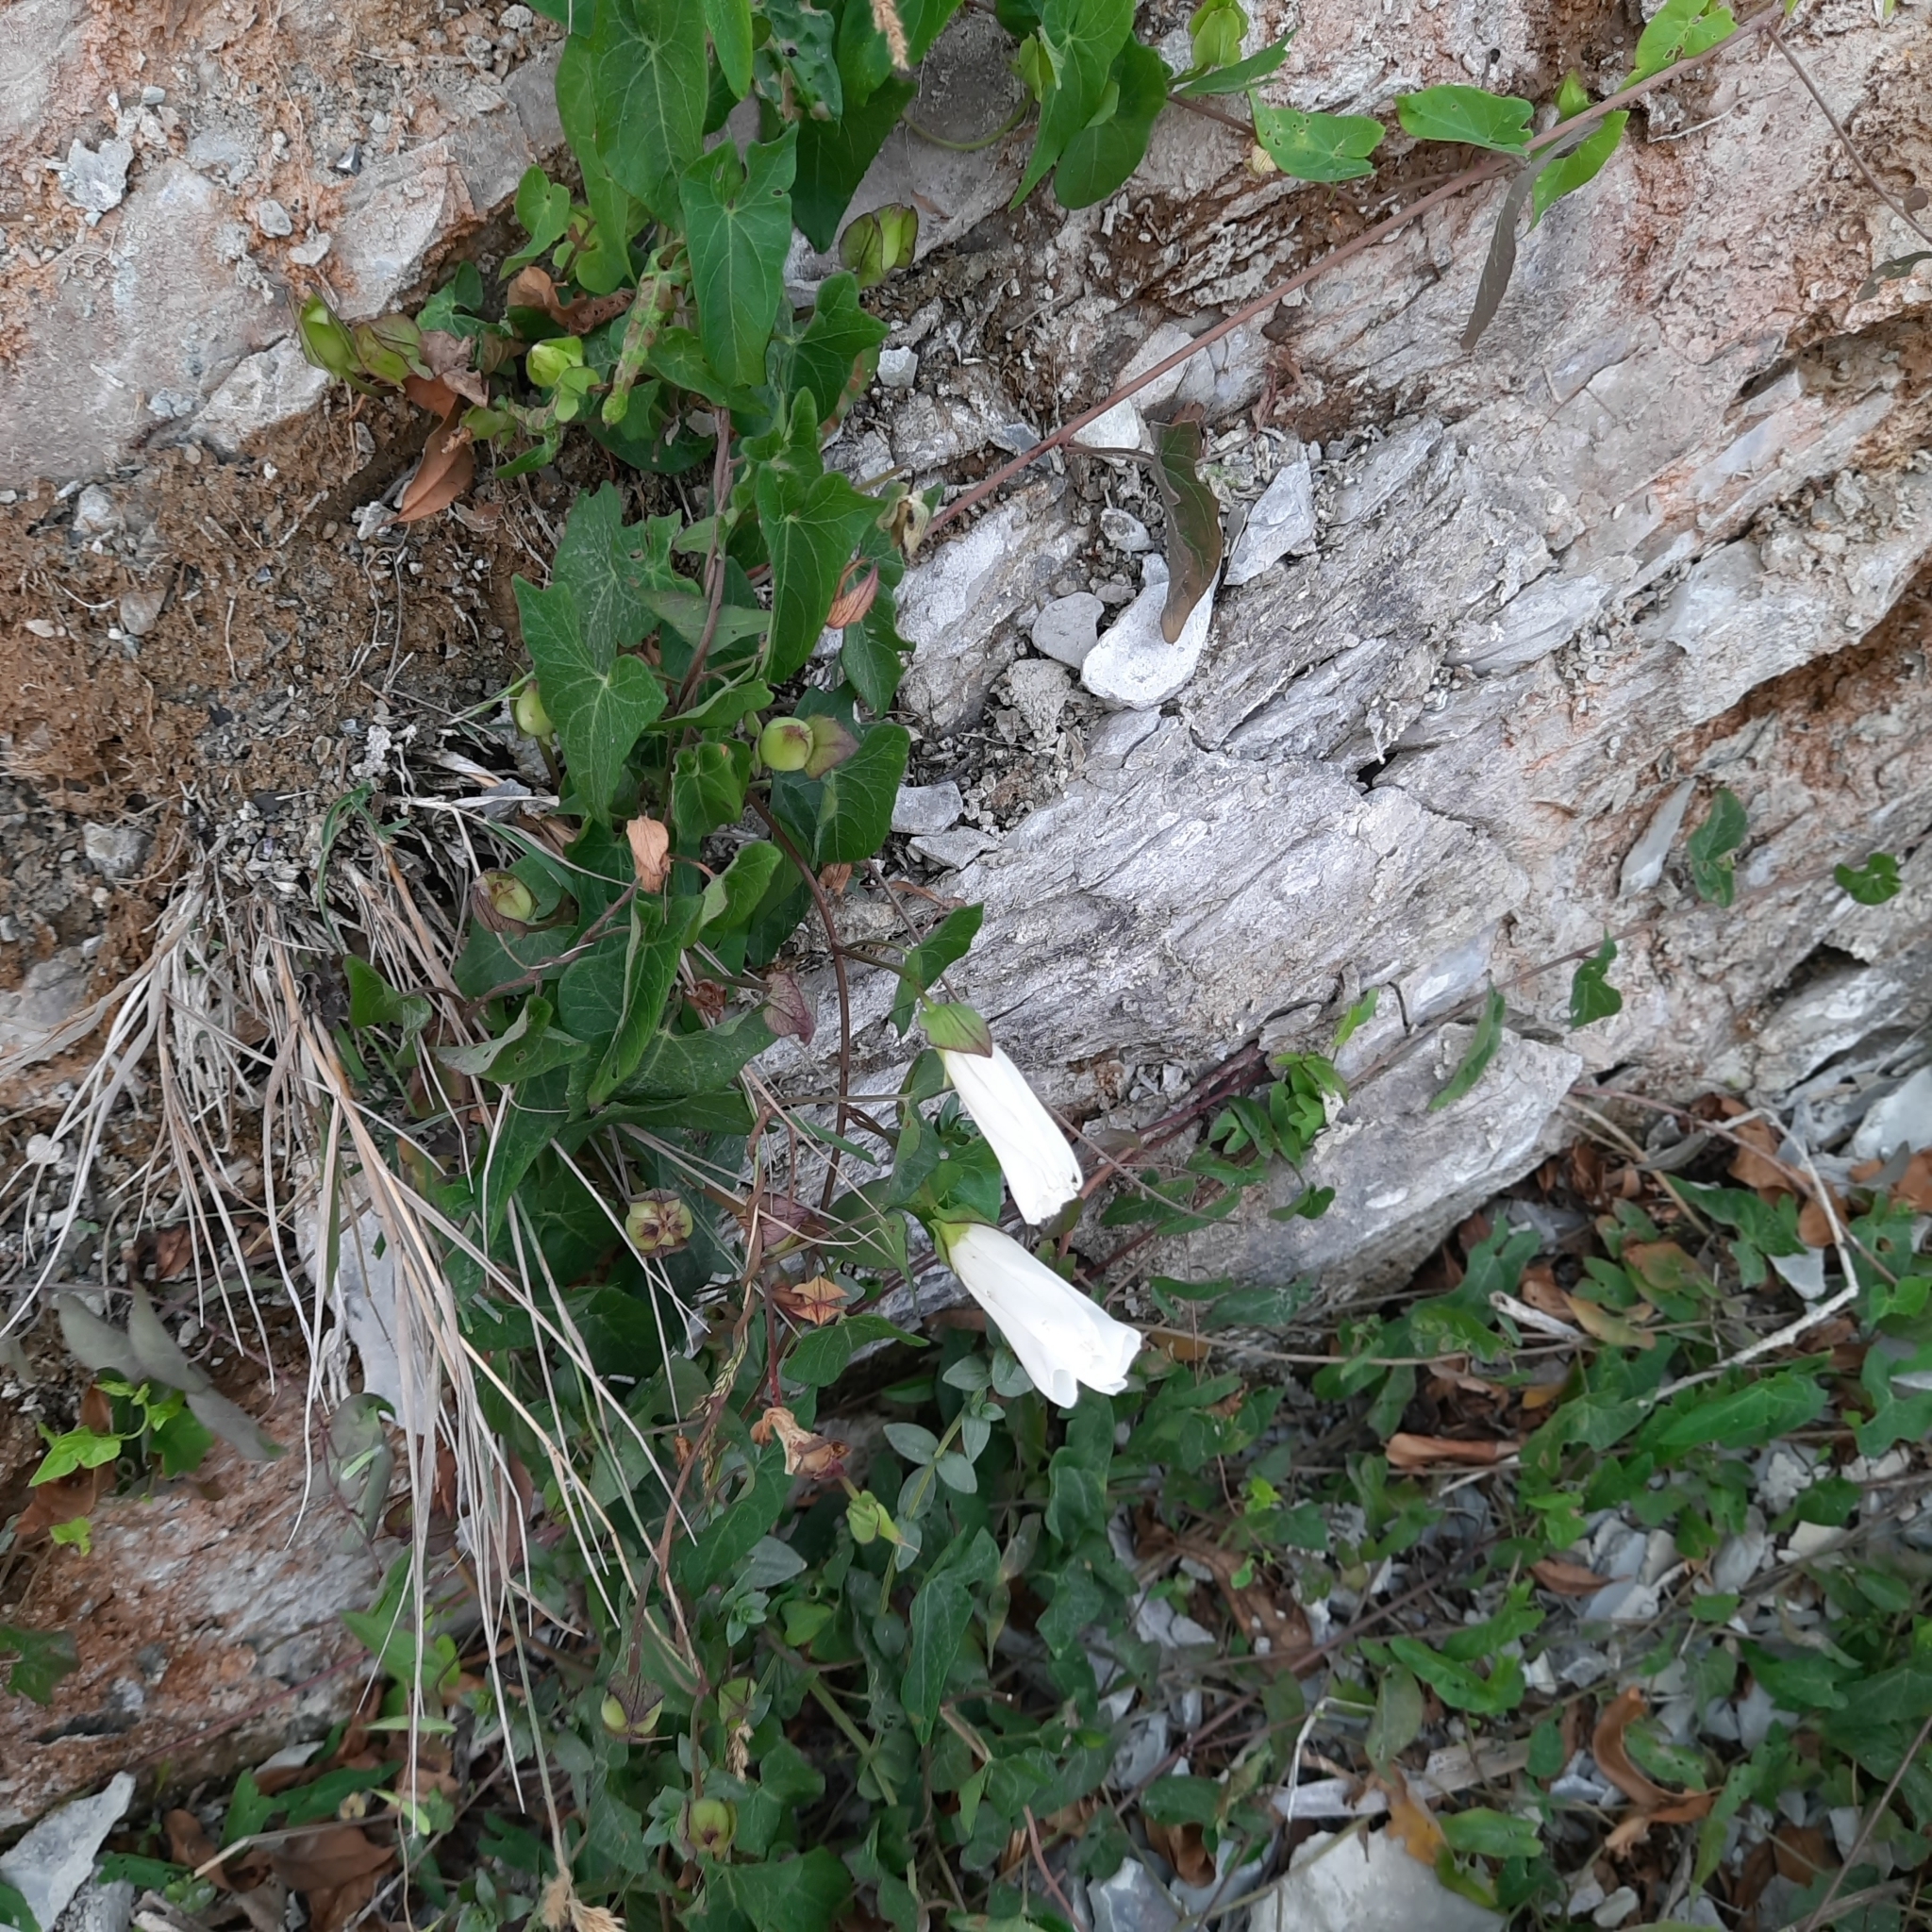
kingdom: Plantae
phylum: Tracheophyta
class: Magnoliopsida
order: Solanales
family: Convolvulaceae
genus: Calystegia
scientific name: Calystegia sepium
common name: Hedge bindweed
